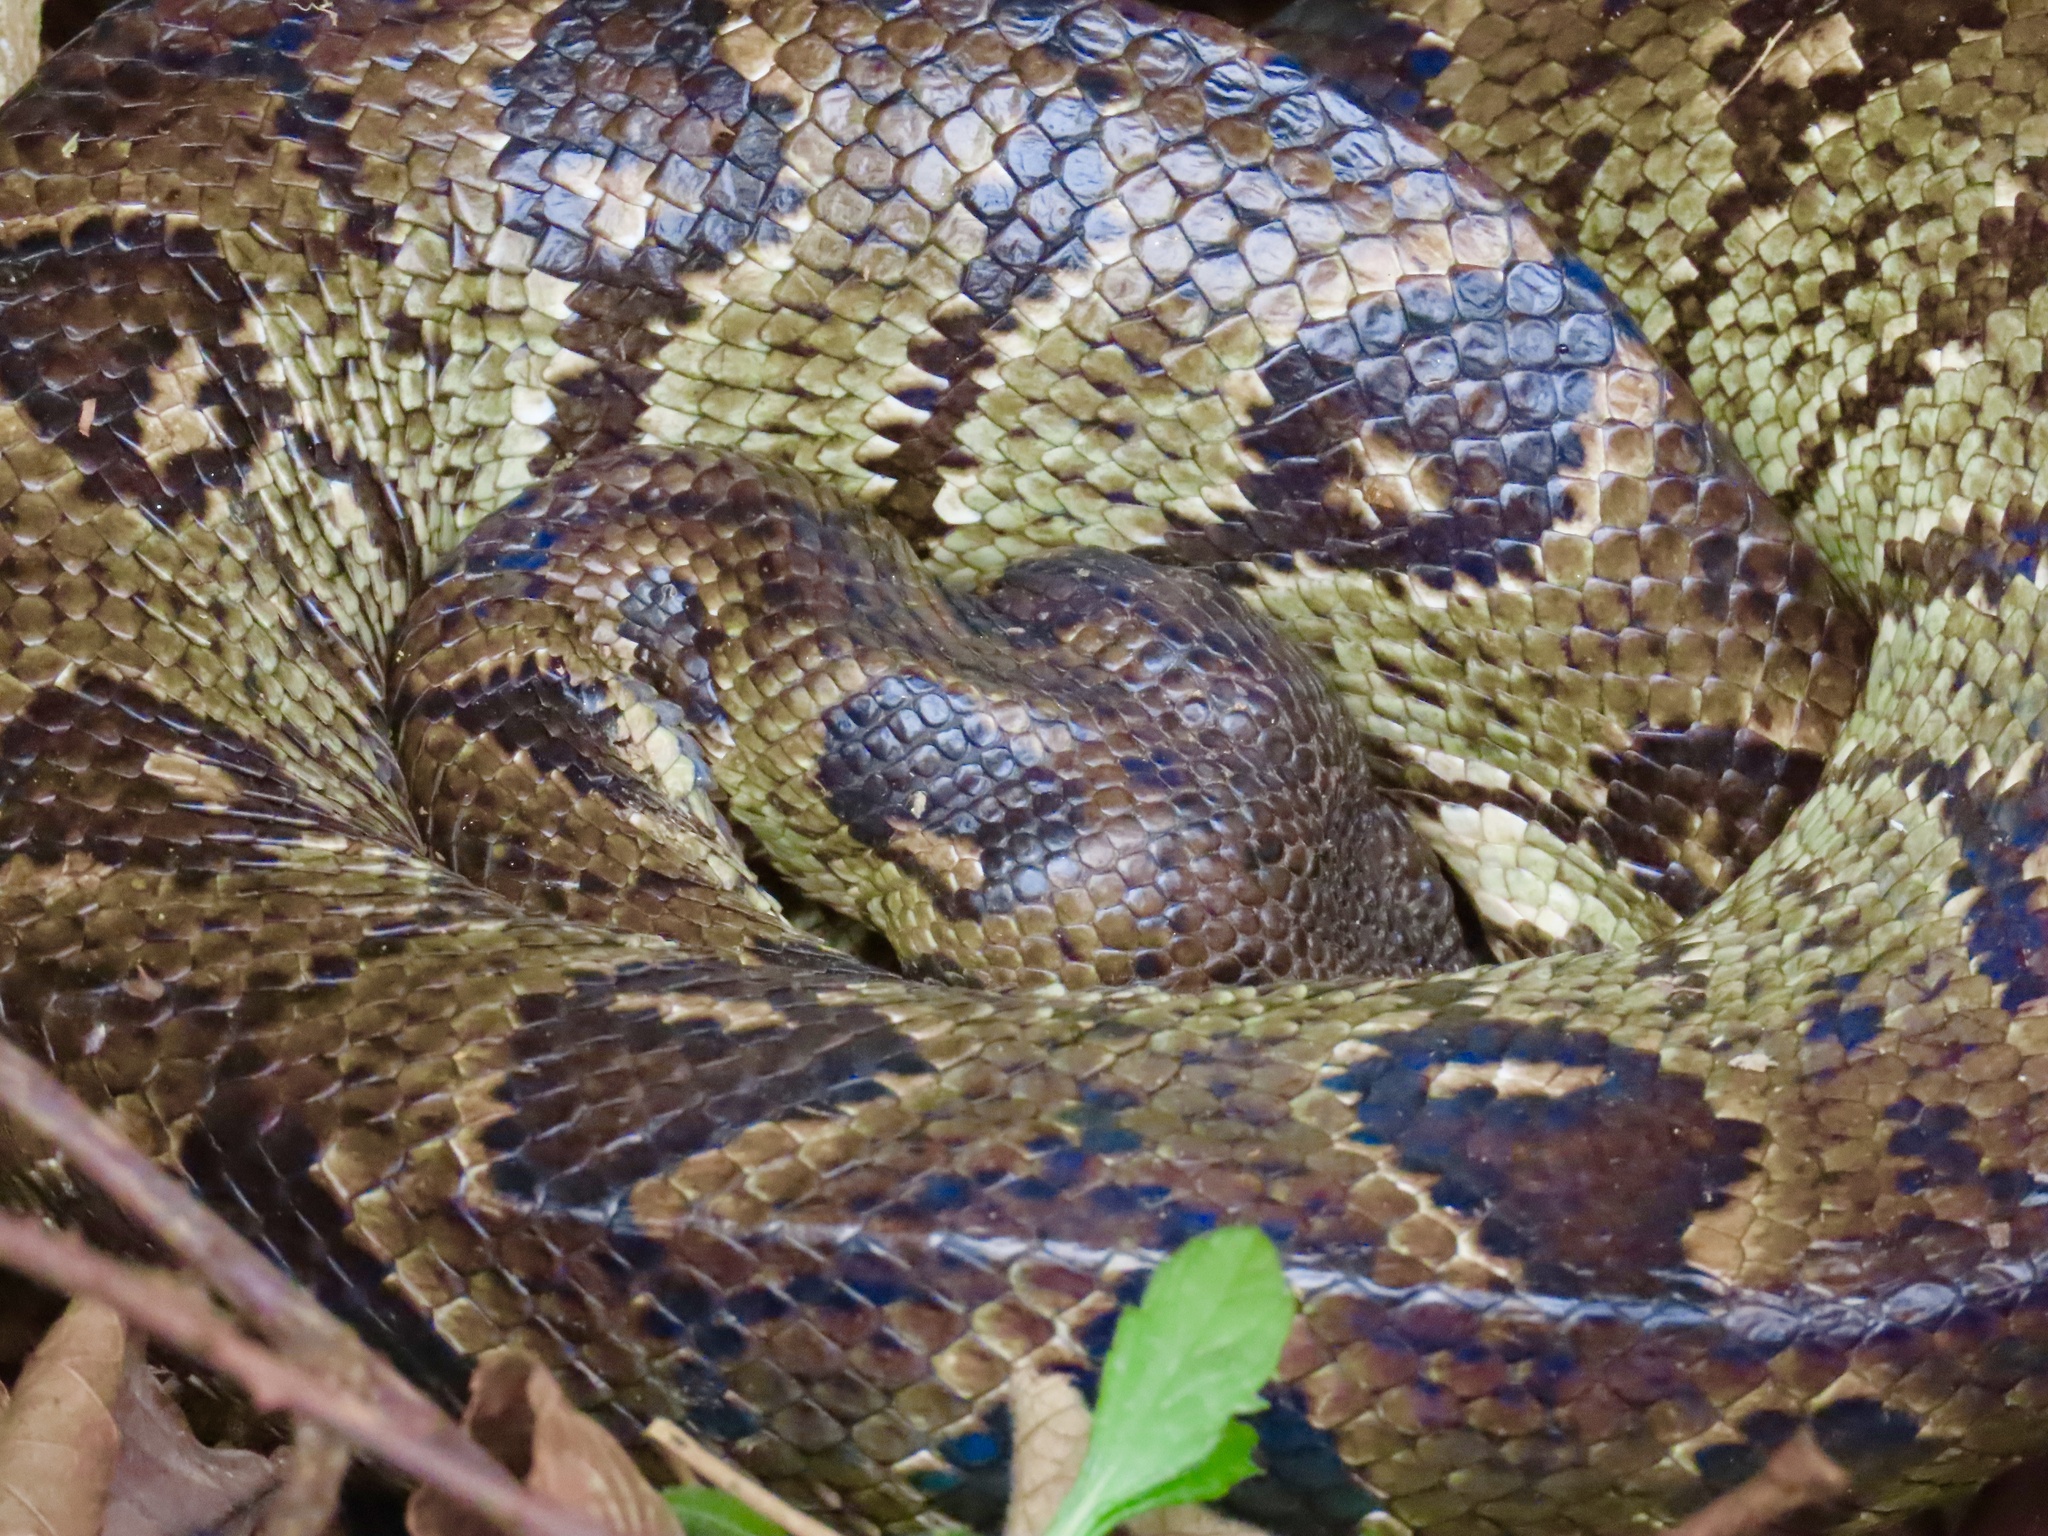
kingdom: Animalia
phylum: Chordata
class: Squamata
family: Boidae
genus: Sanzinia
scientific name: Sanzinia madagascariensis
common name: Madagascar tree boa
